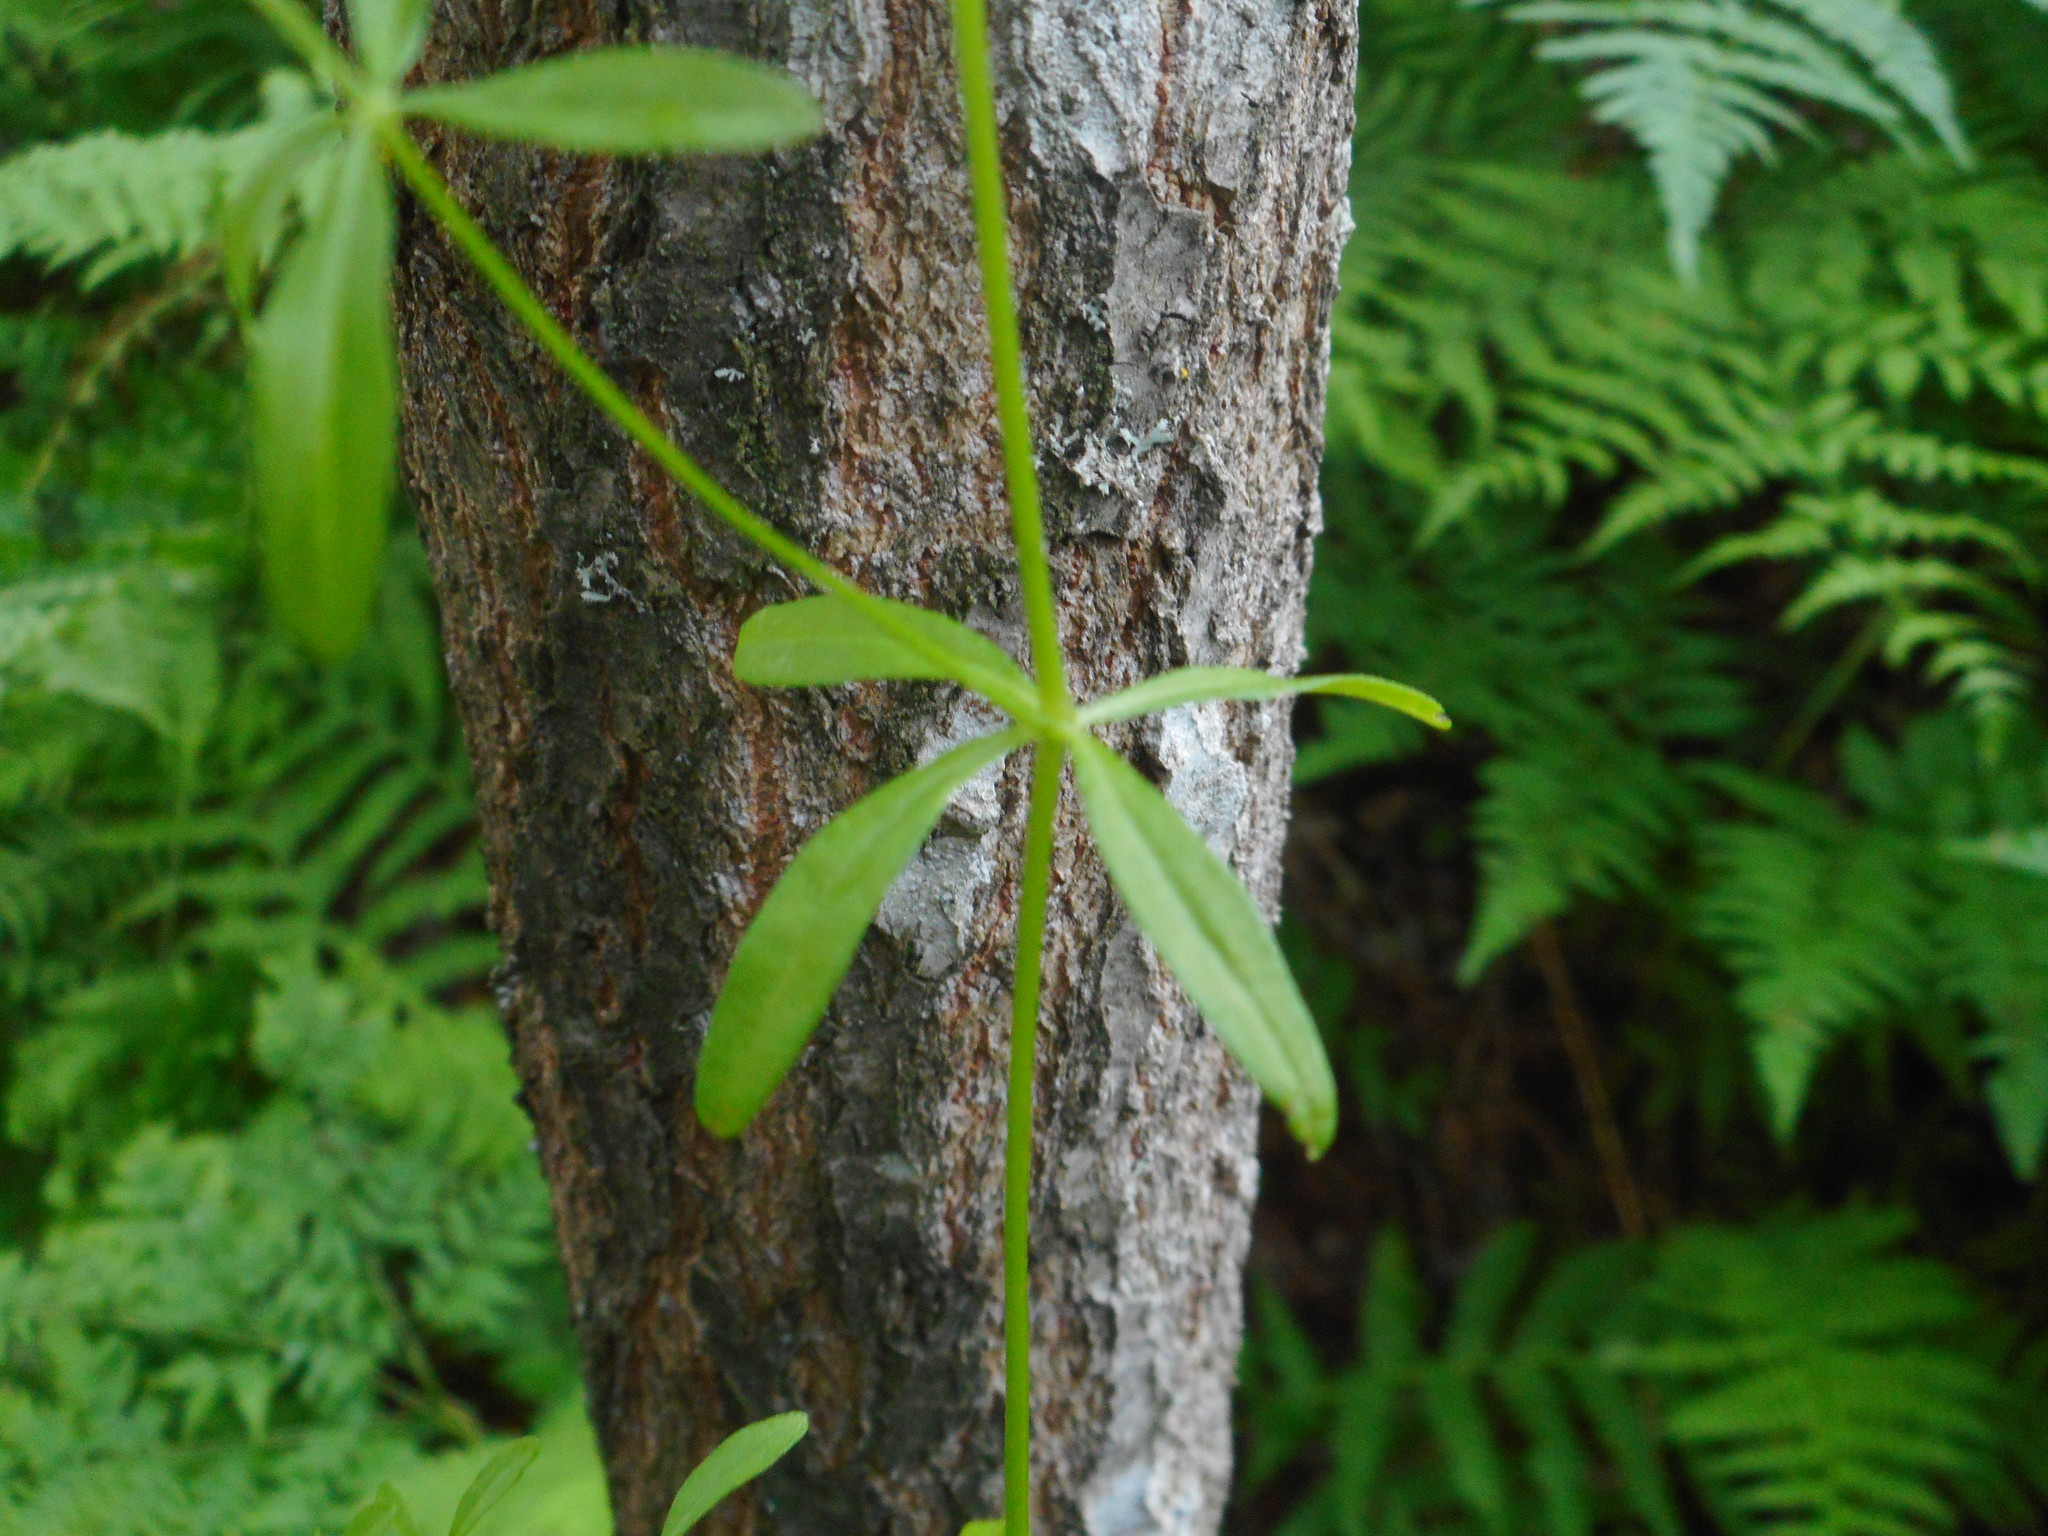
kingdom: Plantae
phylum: Tracheophyta
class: Magnoliopsida
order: Gentianales
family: Rubiaceae
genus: Galium
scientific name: Galium palustre
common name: Common marsh-bedstraw
